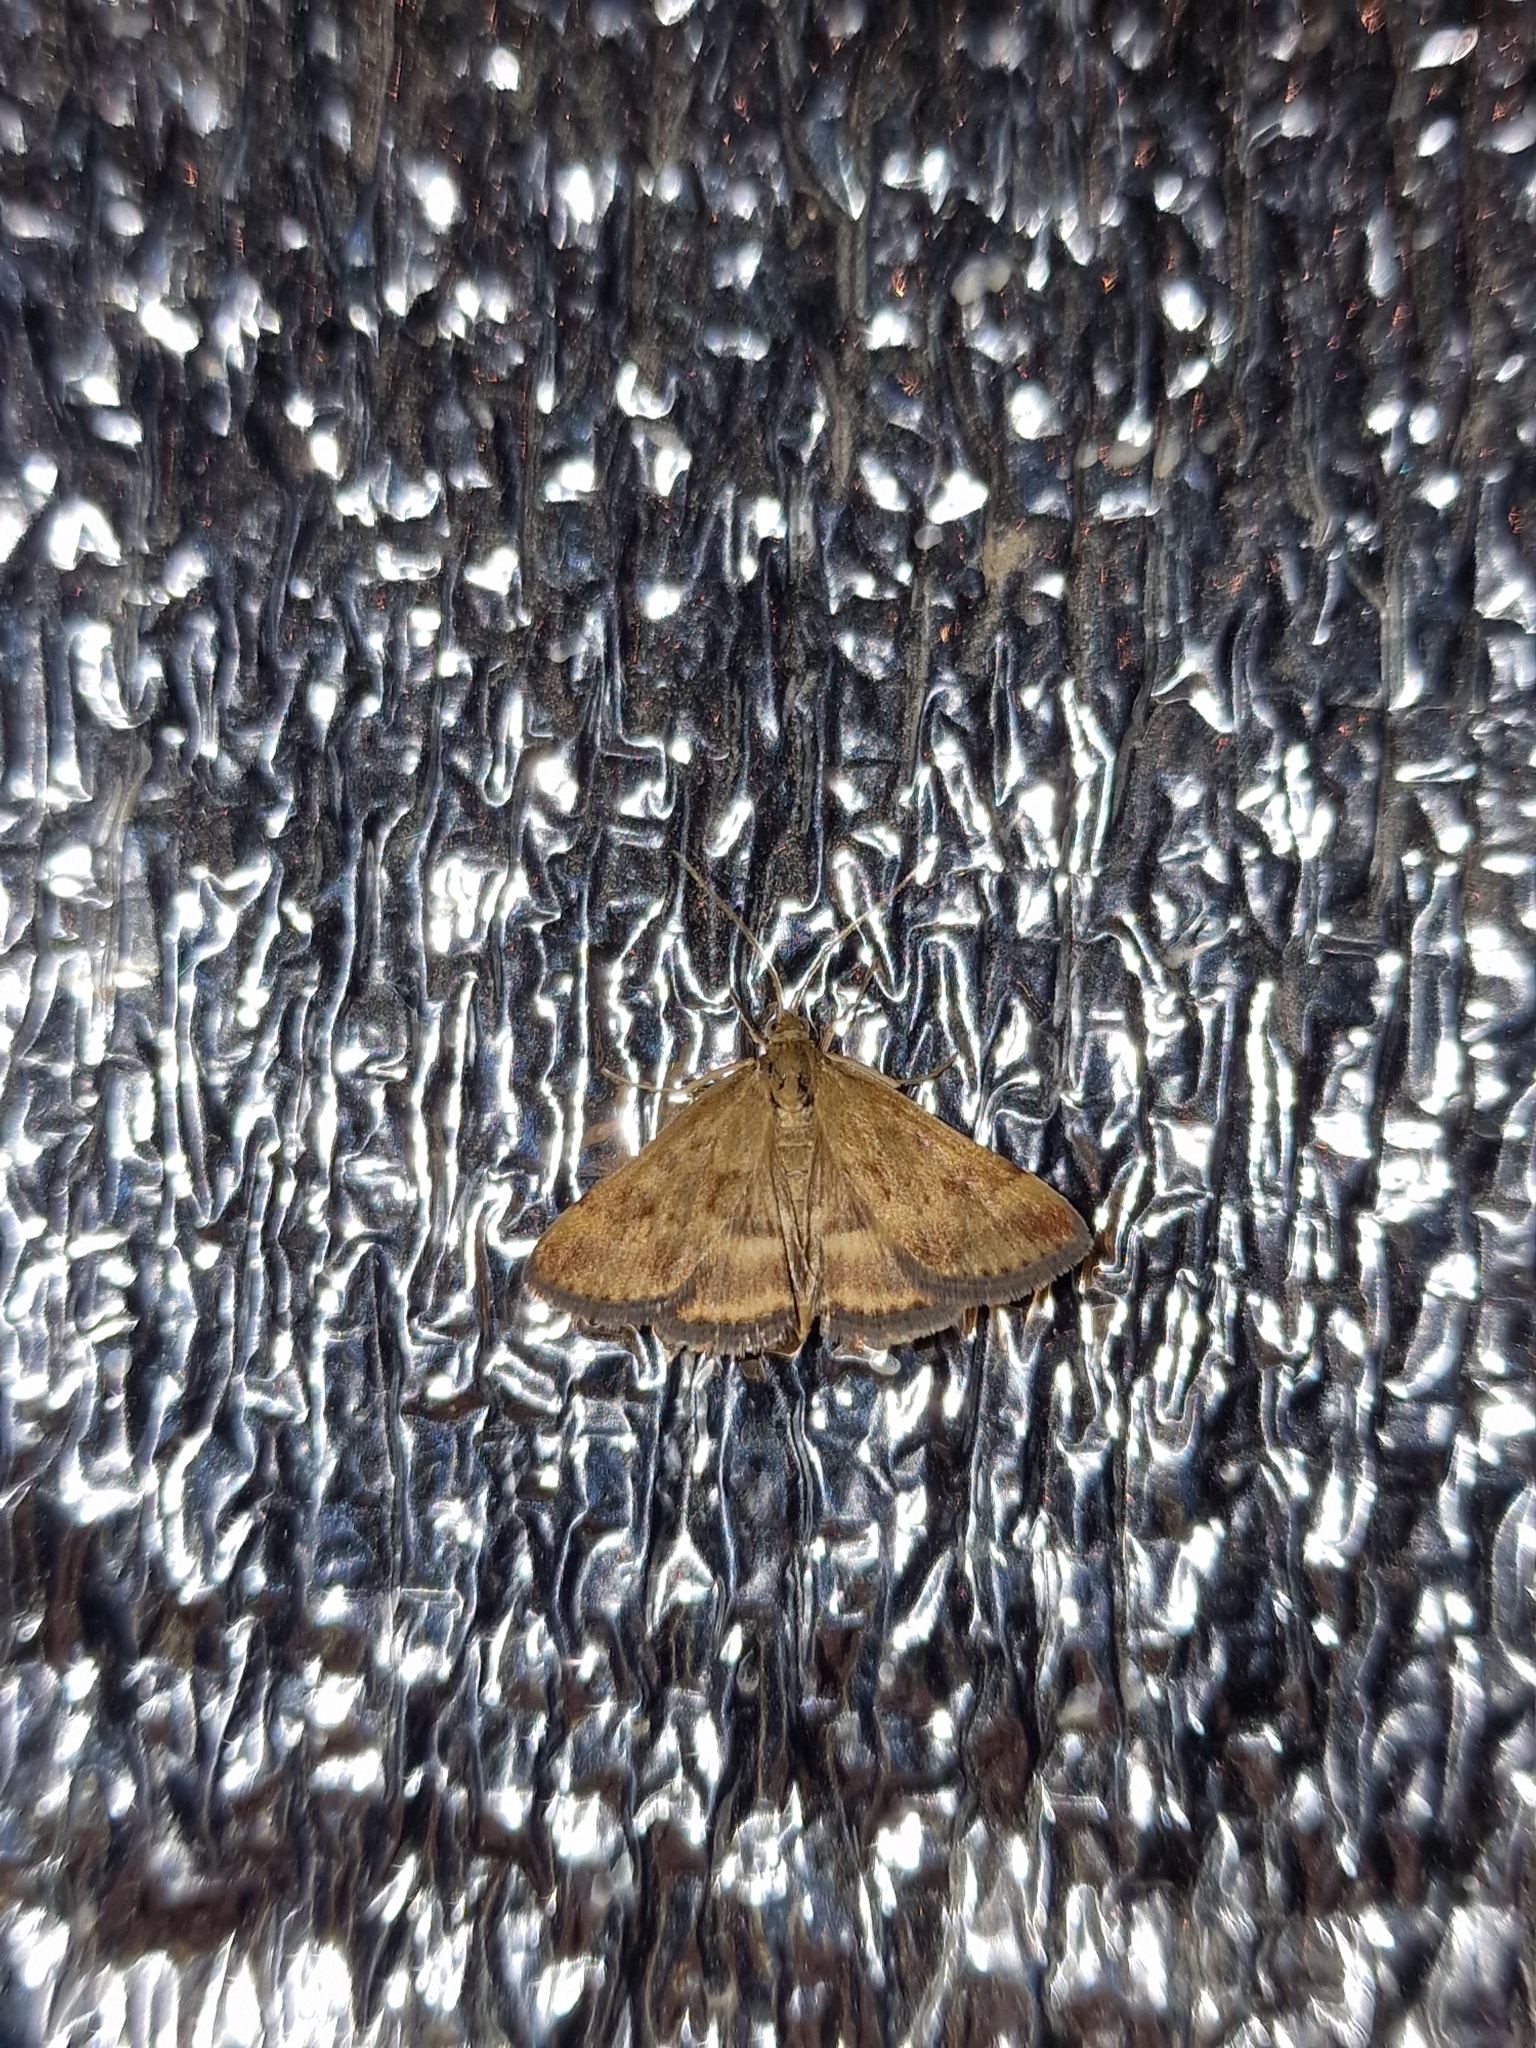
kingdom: Animalia
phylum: Arthropoda
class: Insecta
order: Lepidoptera
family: Crambidae
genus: Pyrausta
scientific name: Pyrausta despicata
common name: Straw-barred pearl
